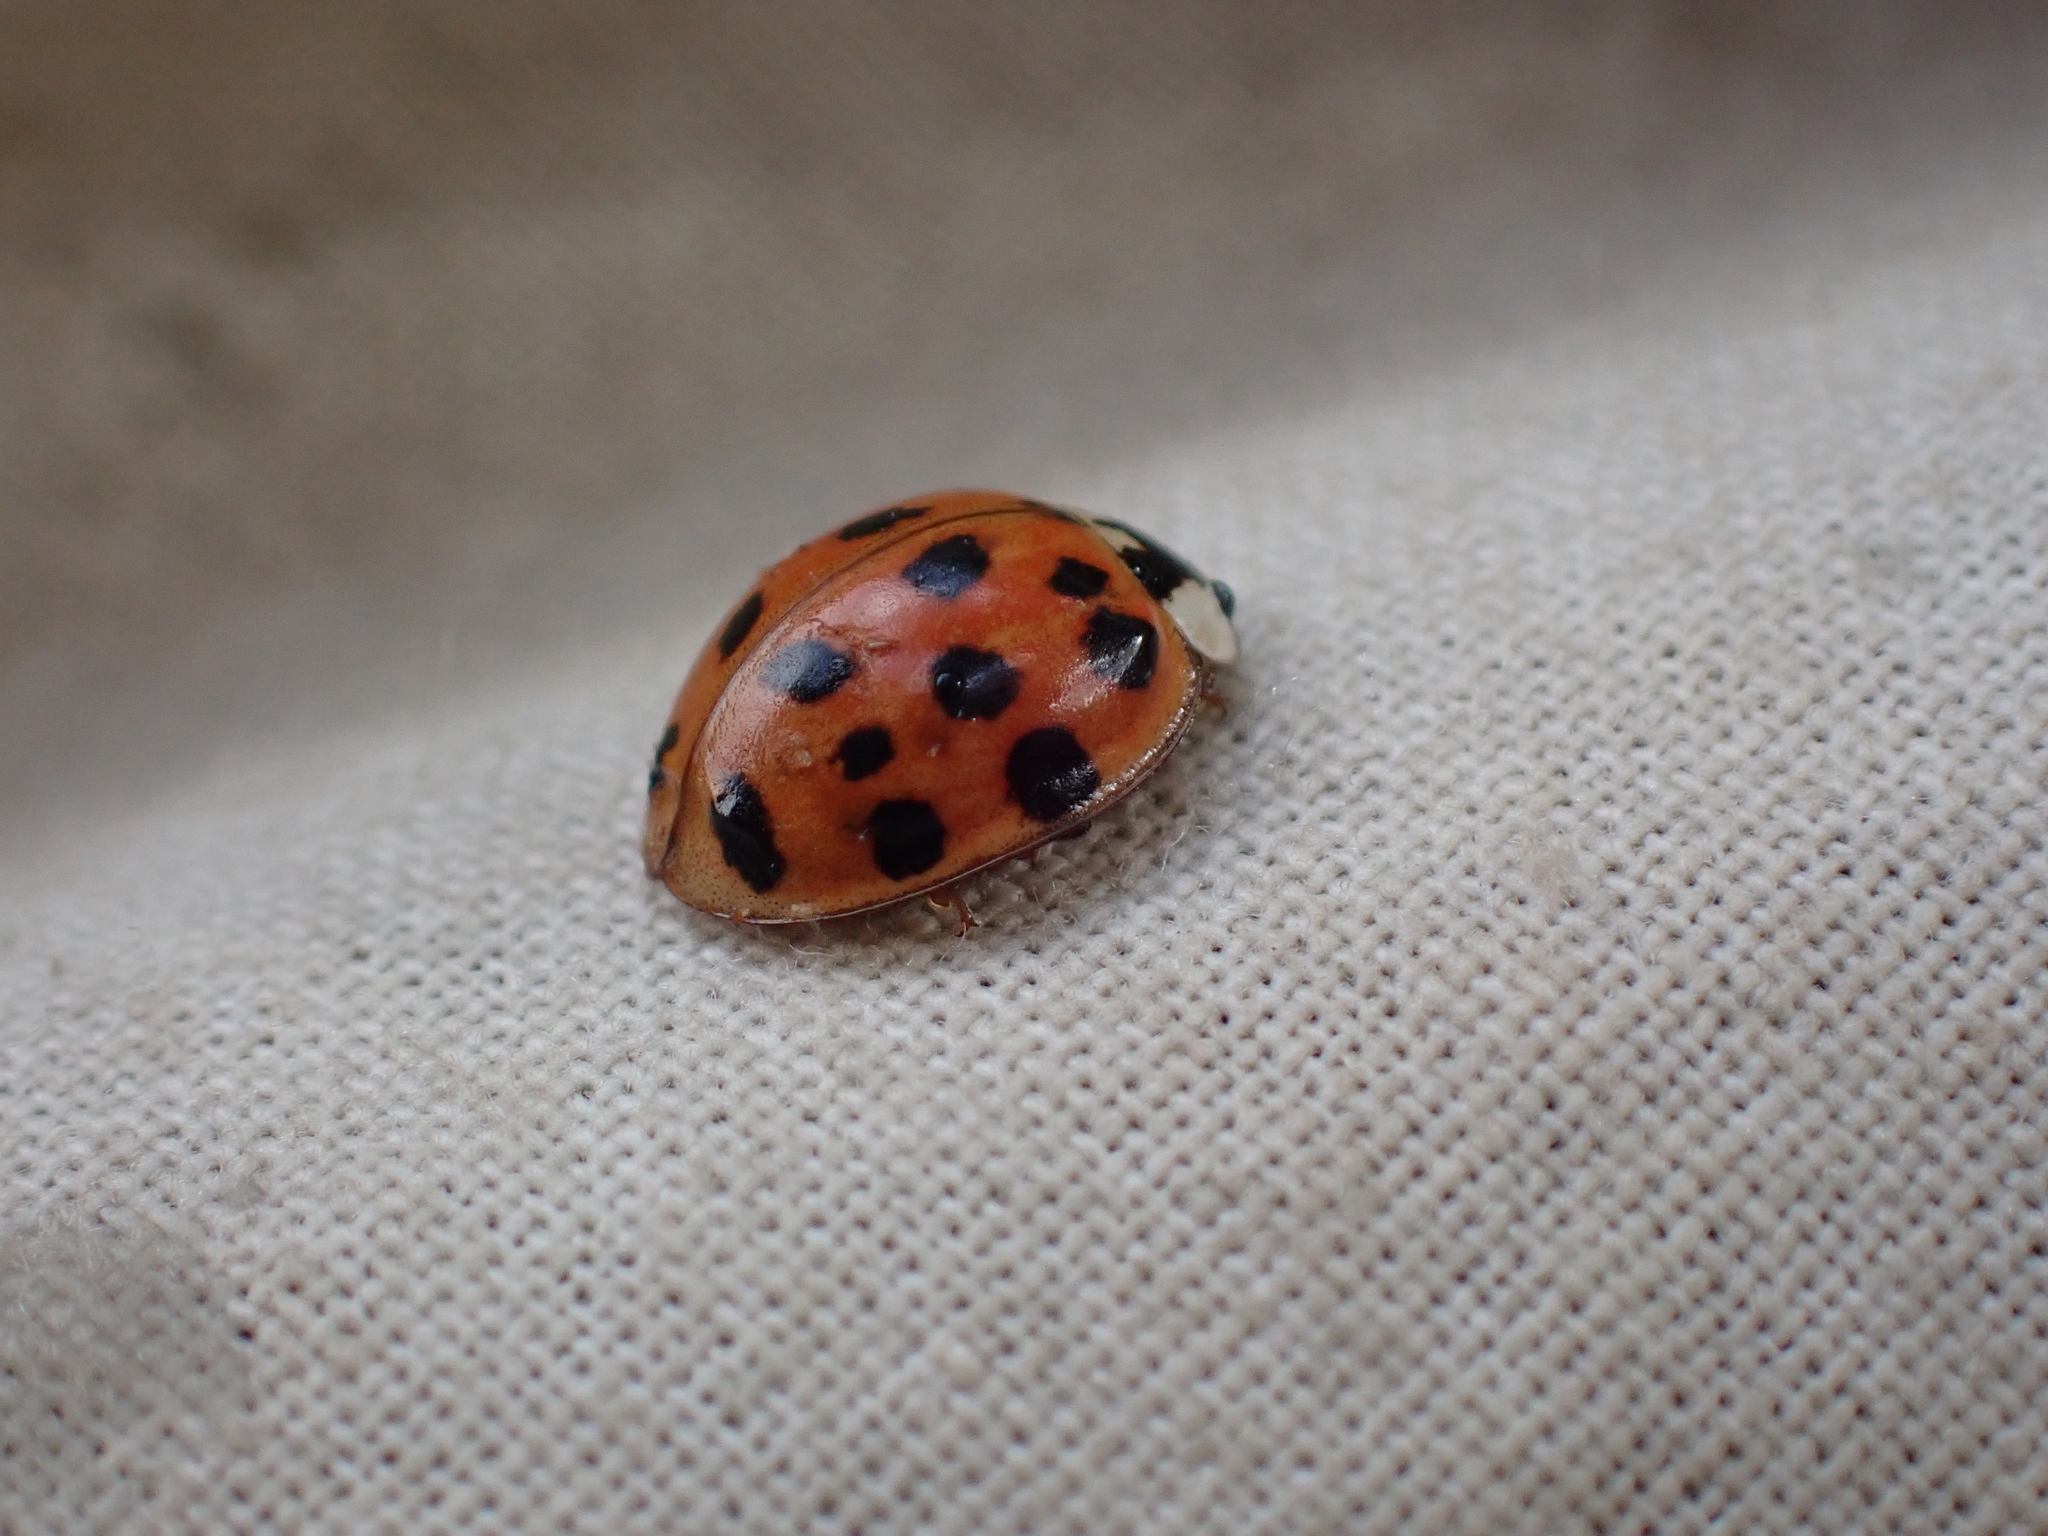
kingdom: Animalia
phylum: Arthropoda
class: Insecta
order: Coleoptera
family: Coccinellidae
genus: Harmonia
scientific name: Harmonia axyridis
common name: Harlequin ladybird
